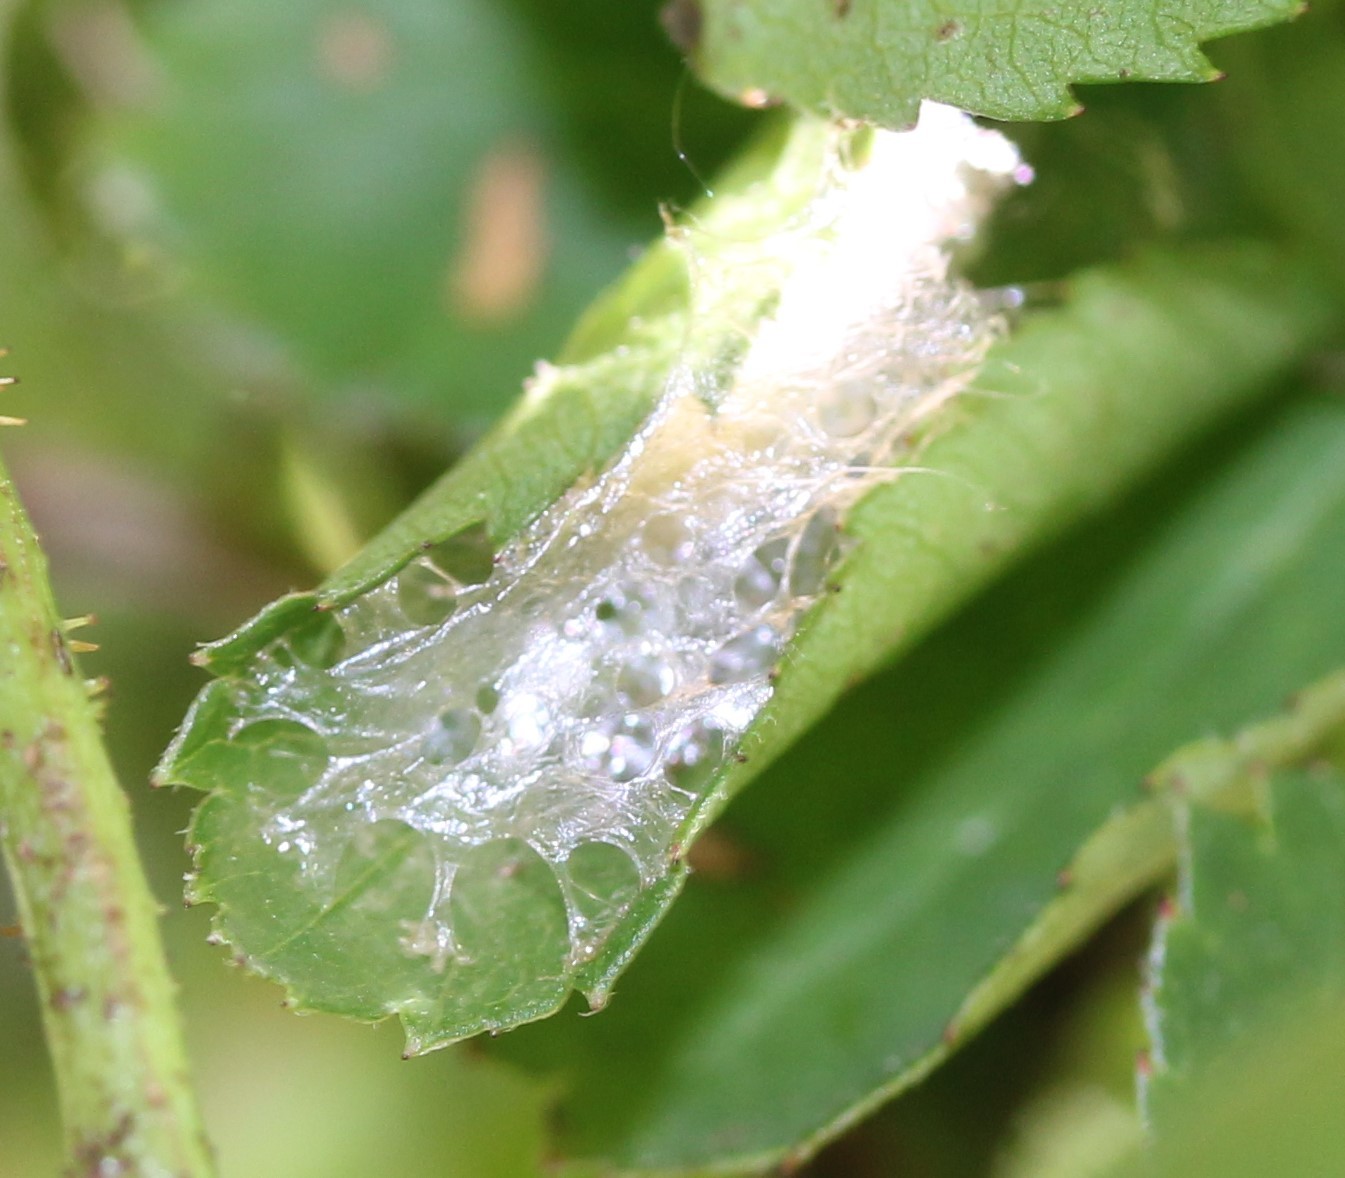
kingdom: Animalia
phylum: Arthropoda
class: Insecta
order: Hymenoptera
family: Tenthredinidae
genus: Cladius
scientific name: Cladius pectinicornis
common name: Sawfly
